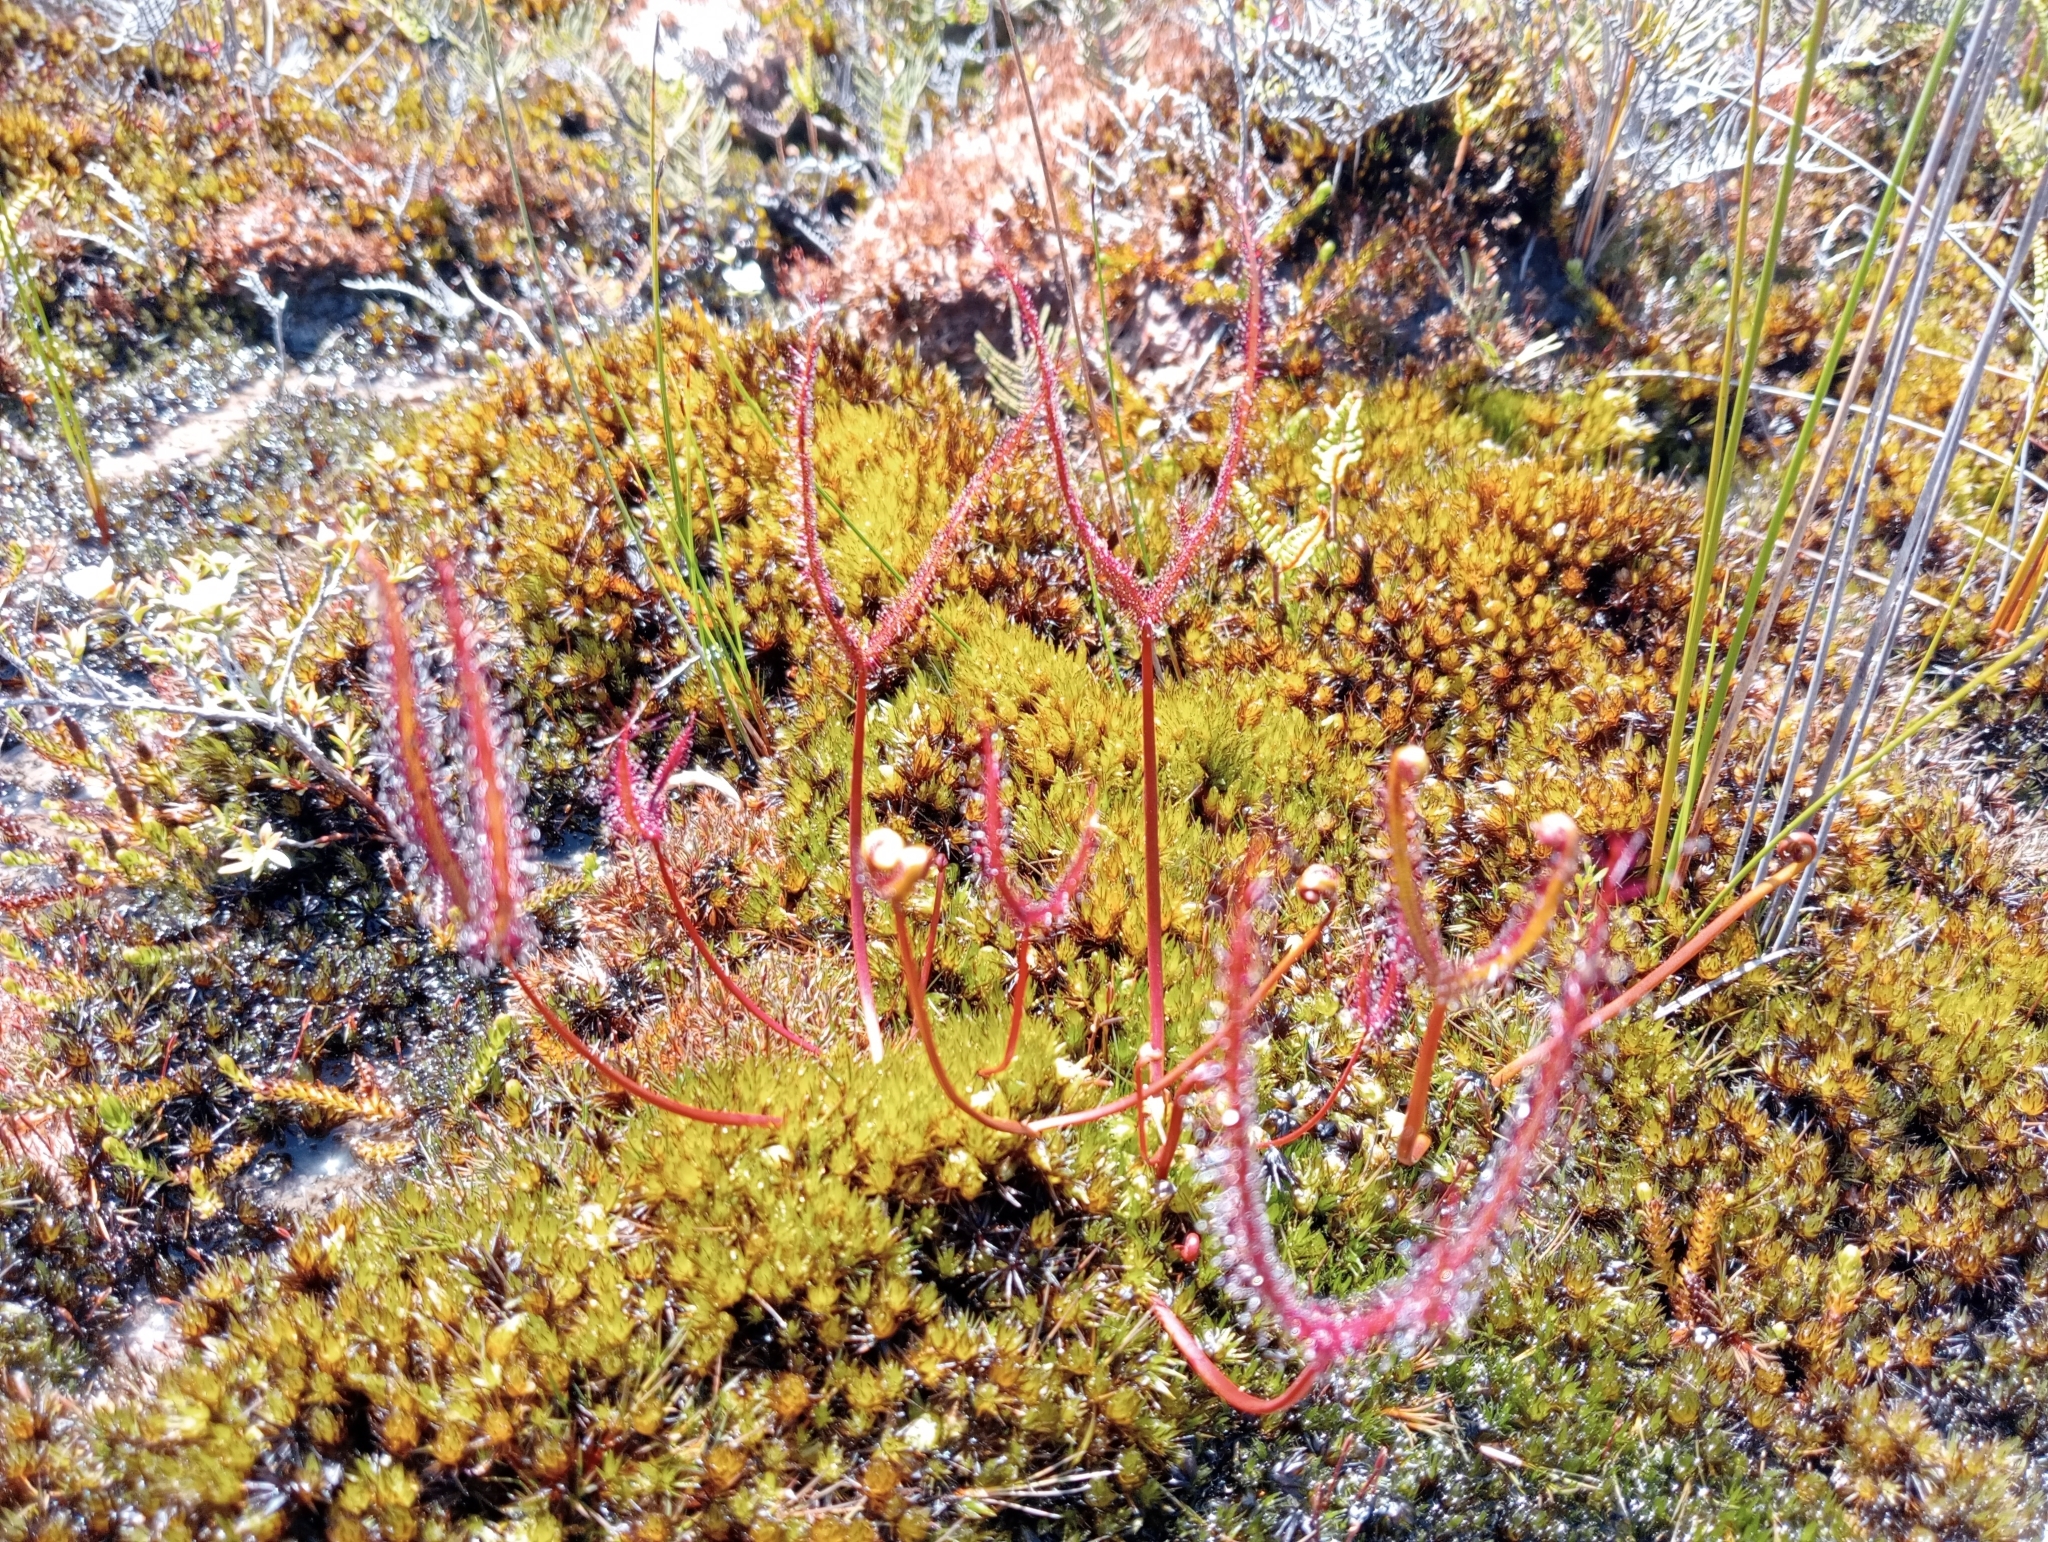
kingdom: Plantae
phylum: Tracheophyta
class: Magnoliopsida
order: Caryophyllales
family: Droseraceae
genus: Drosera
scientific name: Drosera binata
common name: Forked sundew
